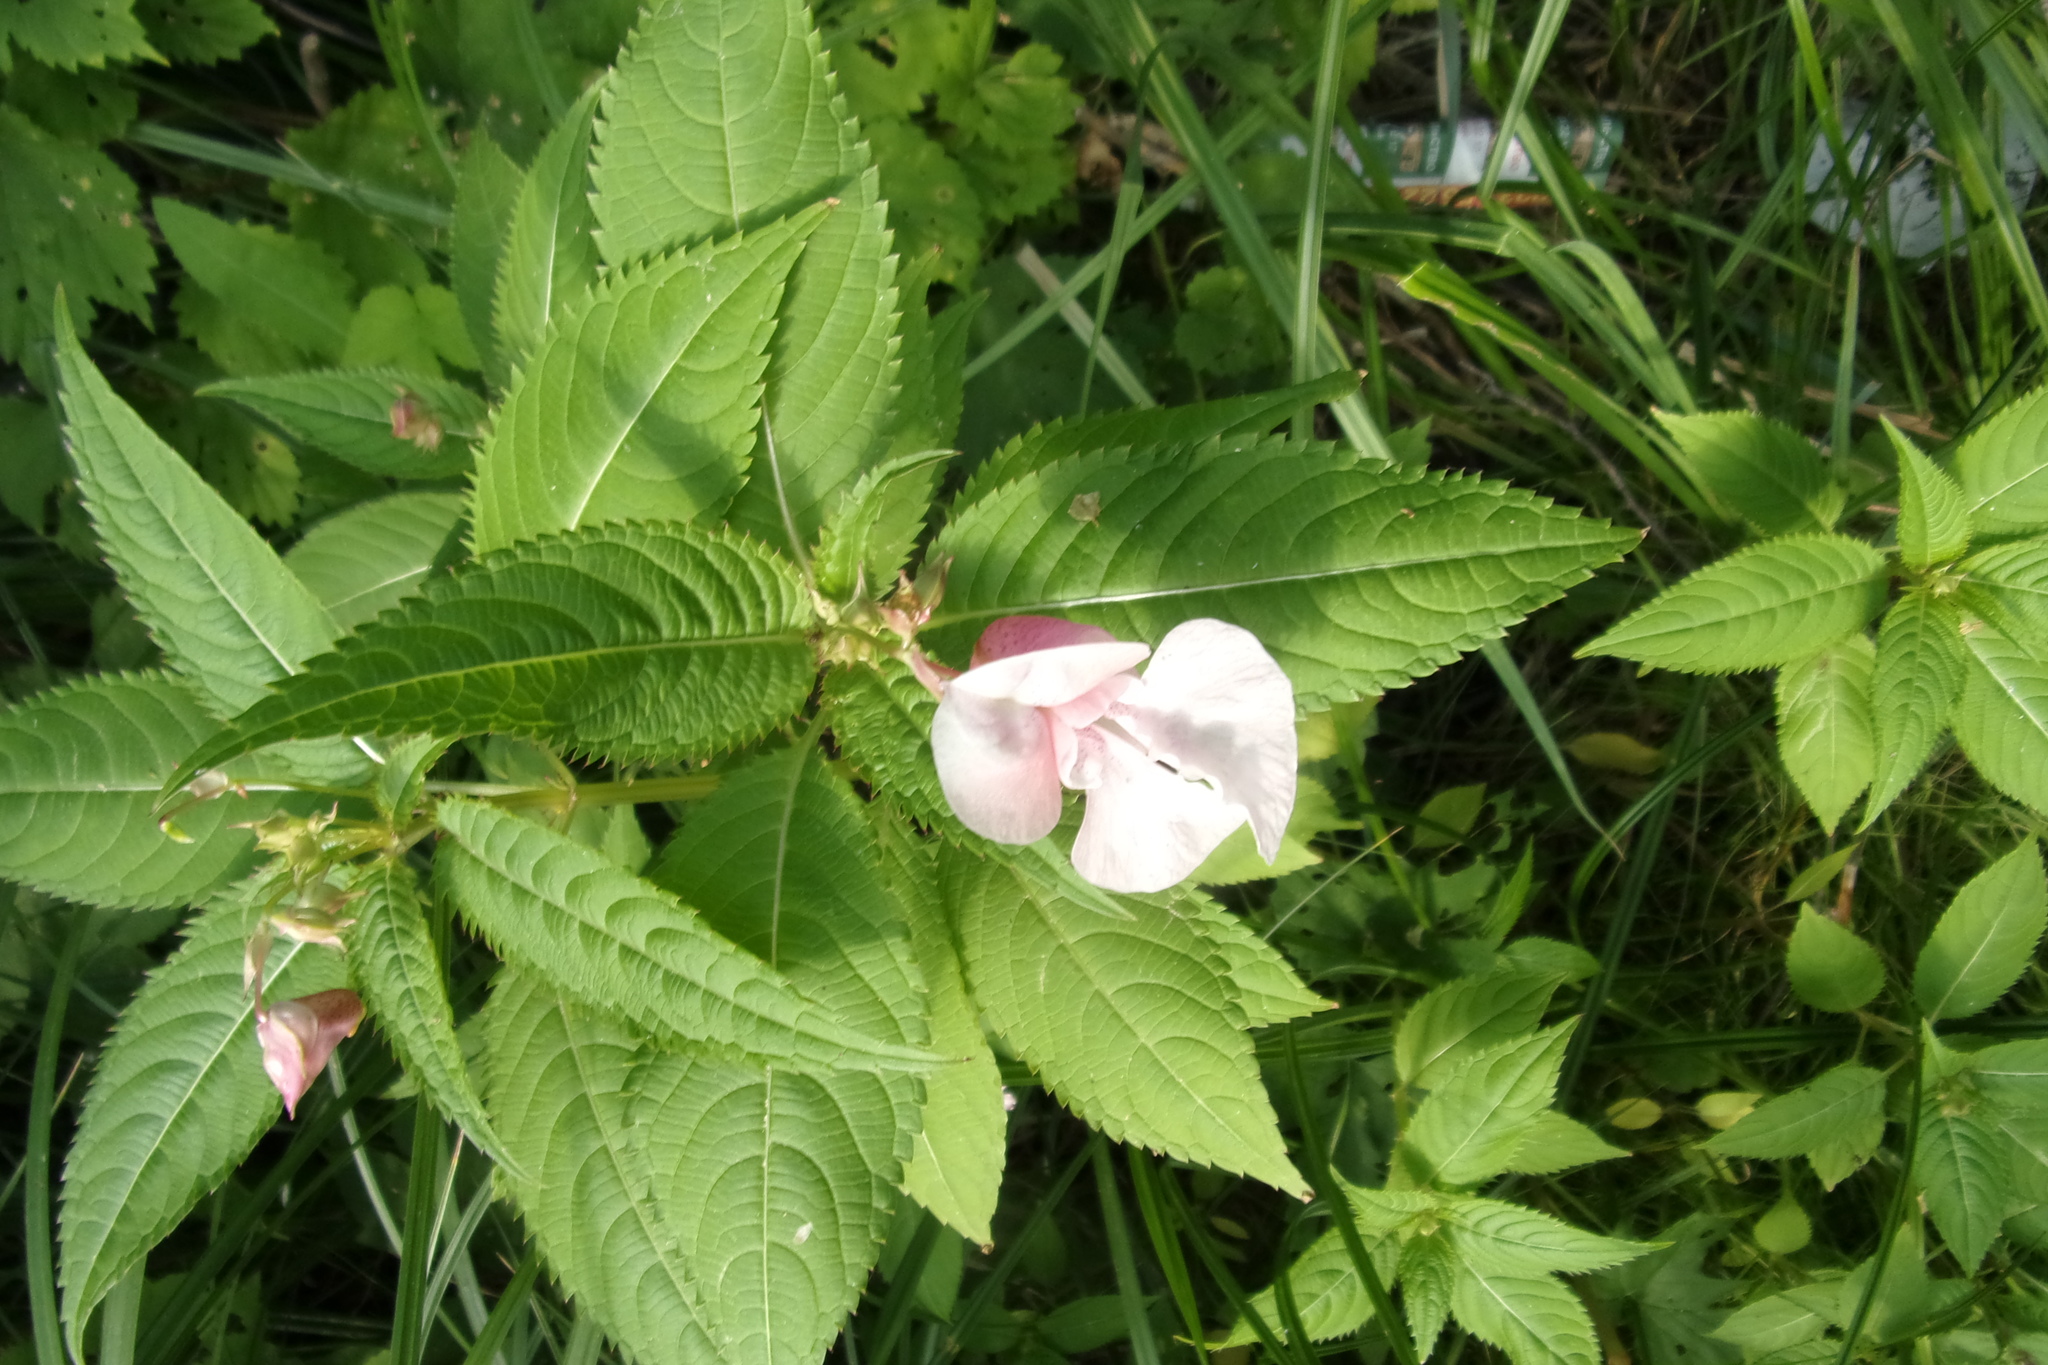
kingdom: Plantae
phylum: Tracheophyta
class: Magnoliopsida
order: Ericales
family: Balsaminaceae
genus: Impatiens
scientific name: Impatiens glandulifera
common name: Himalayan balsam
